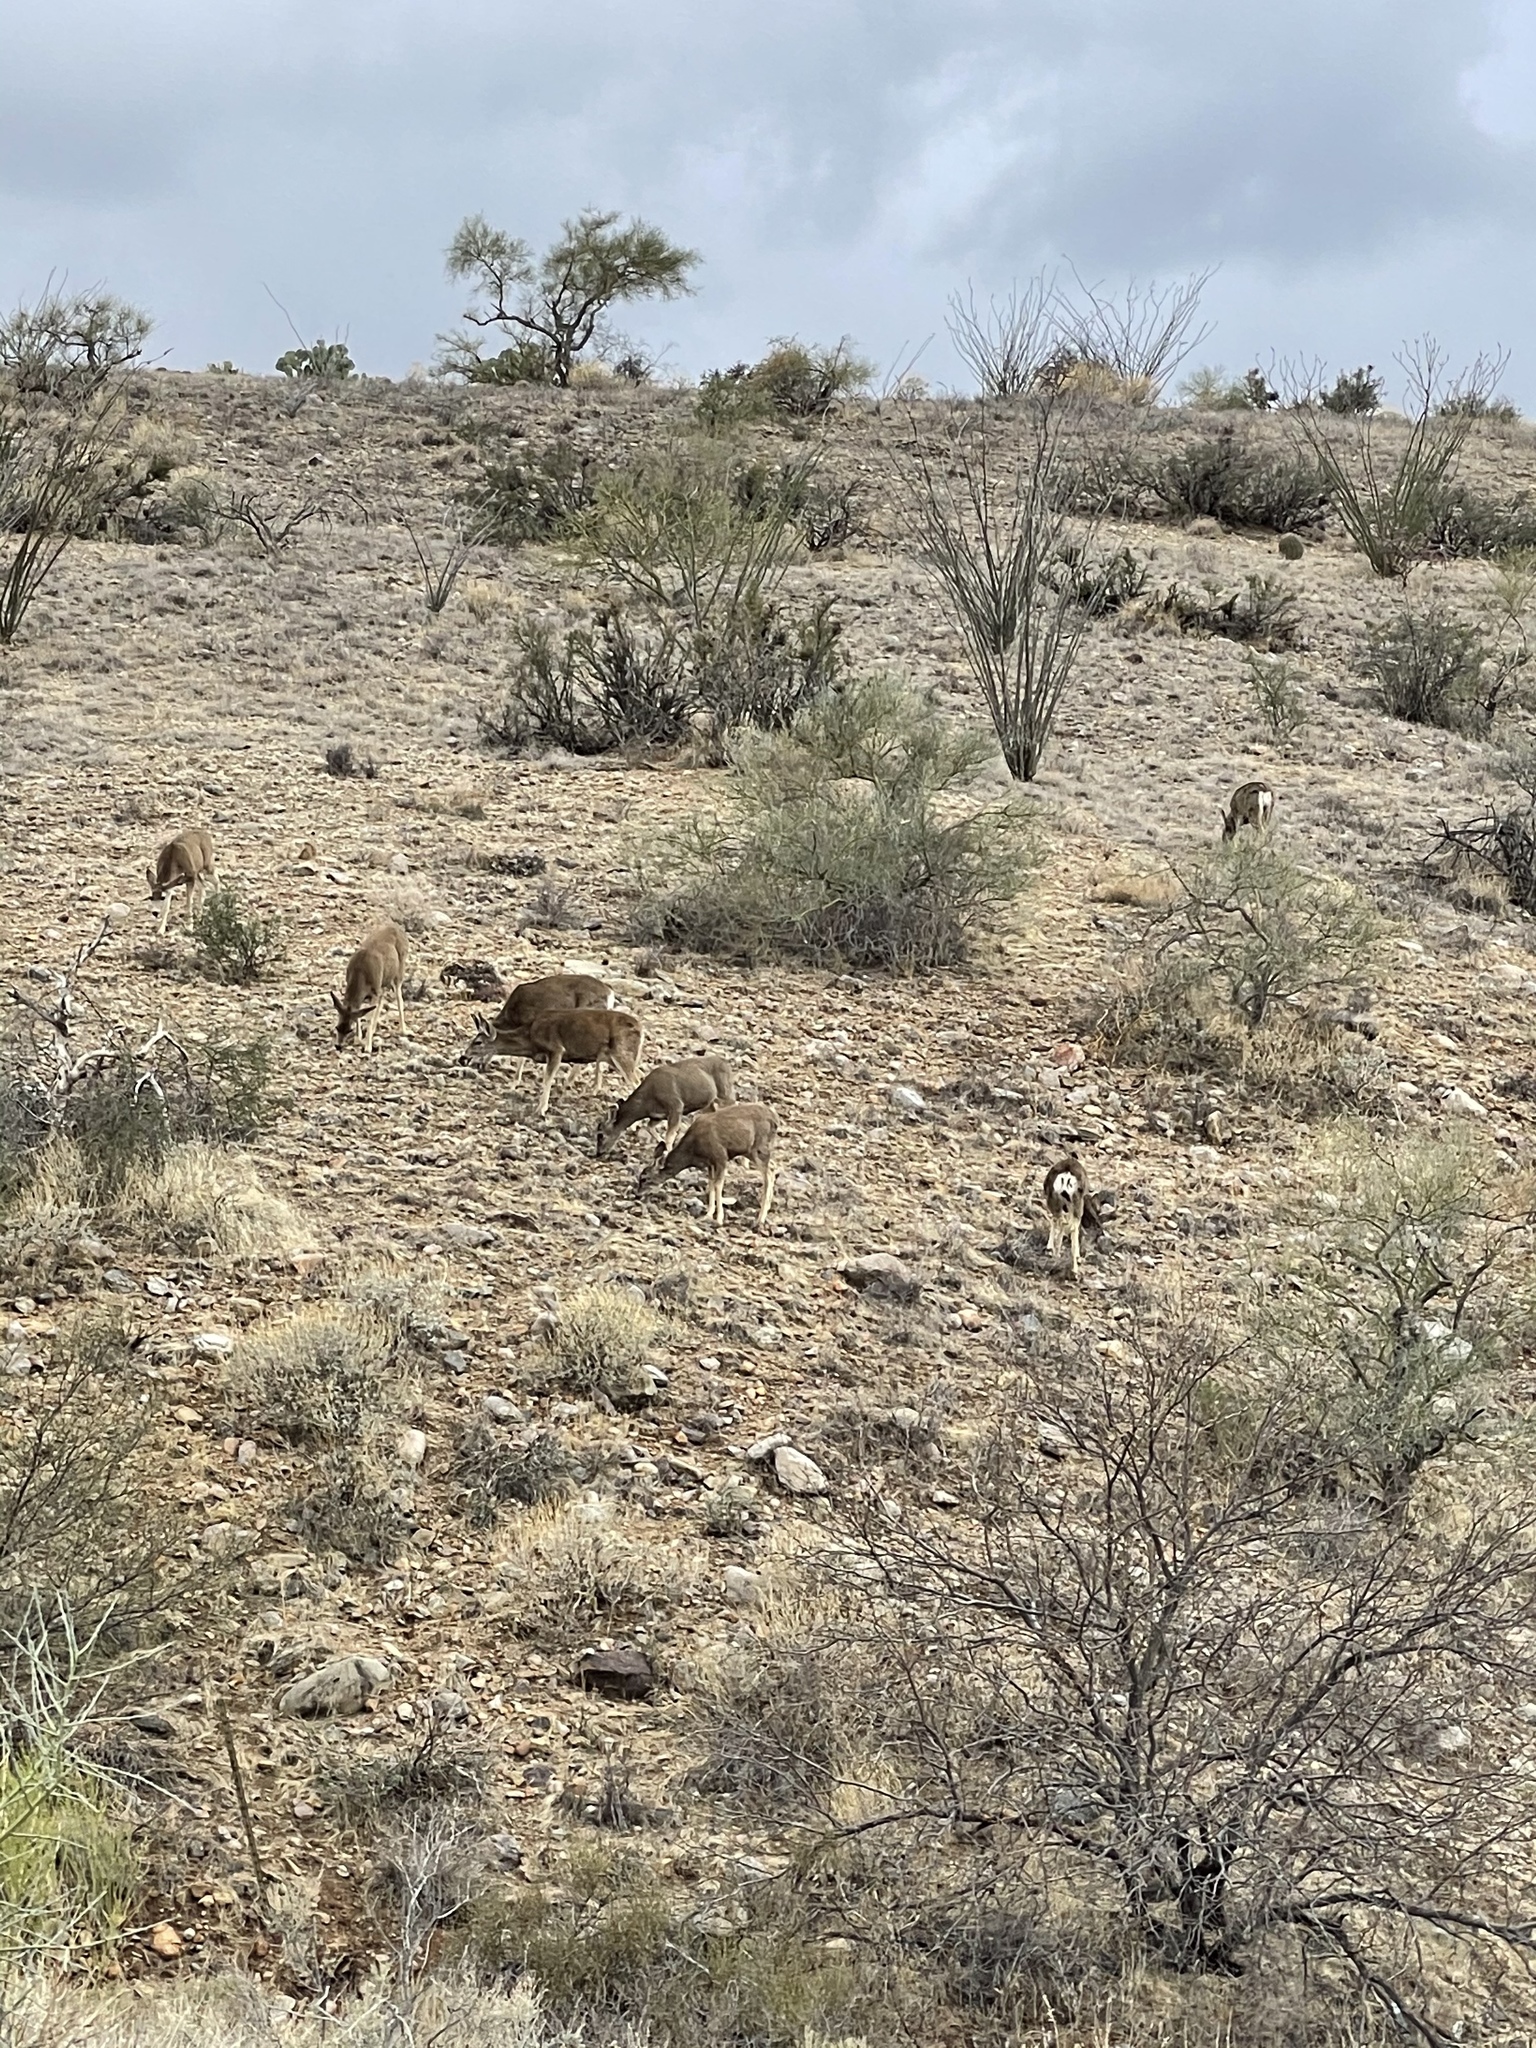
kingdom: Animalia
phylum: Chordata
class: Mammalia
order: Artiodactyla
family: Cervidae
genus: Odocoileus
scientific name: Odocoileus hemionus
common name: Mule deer
